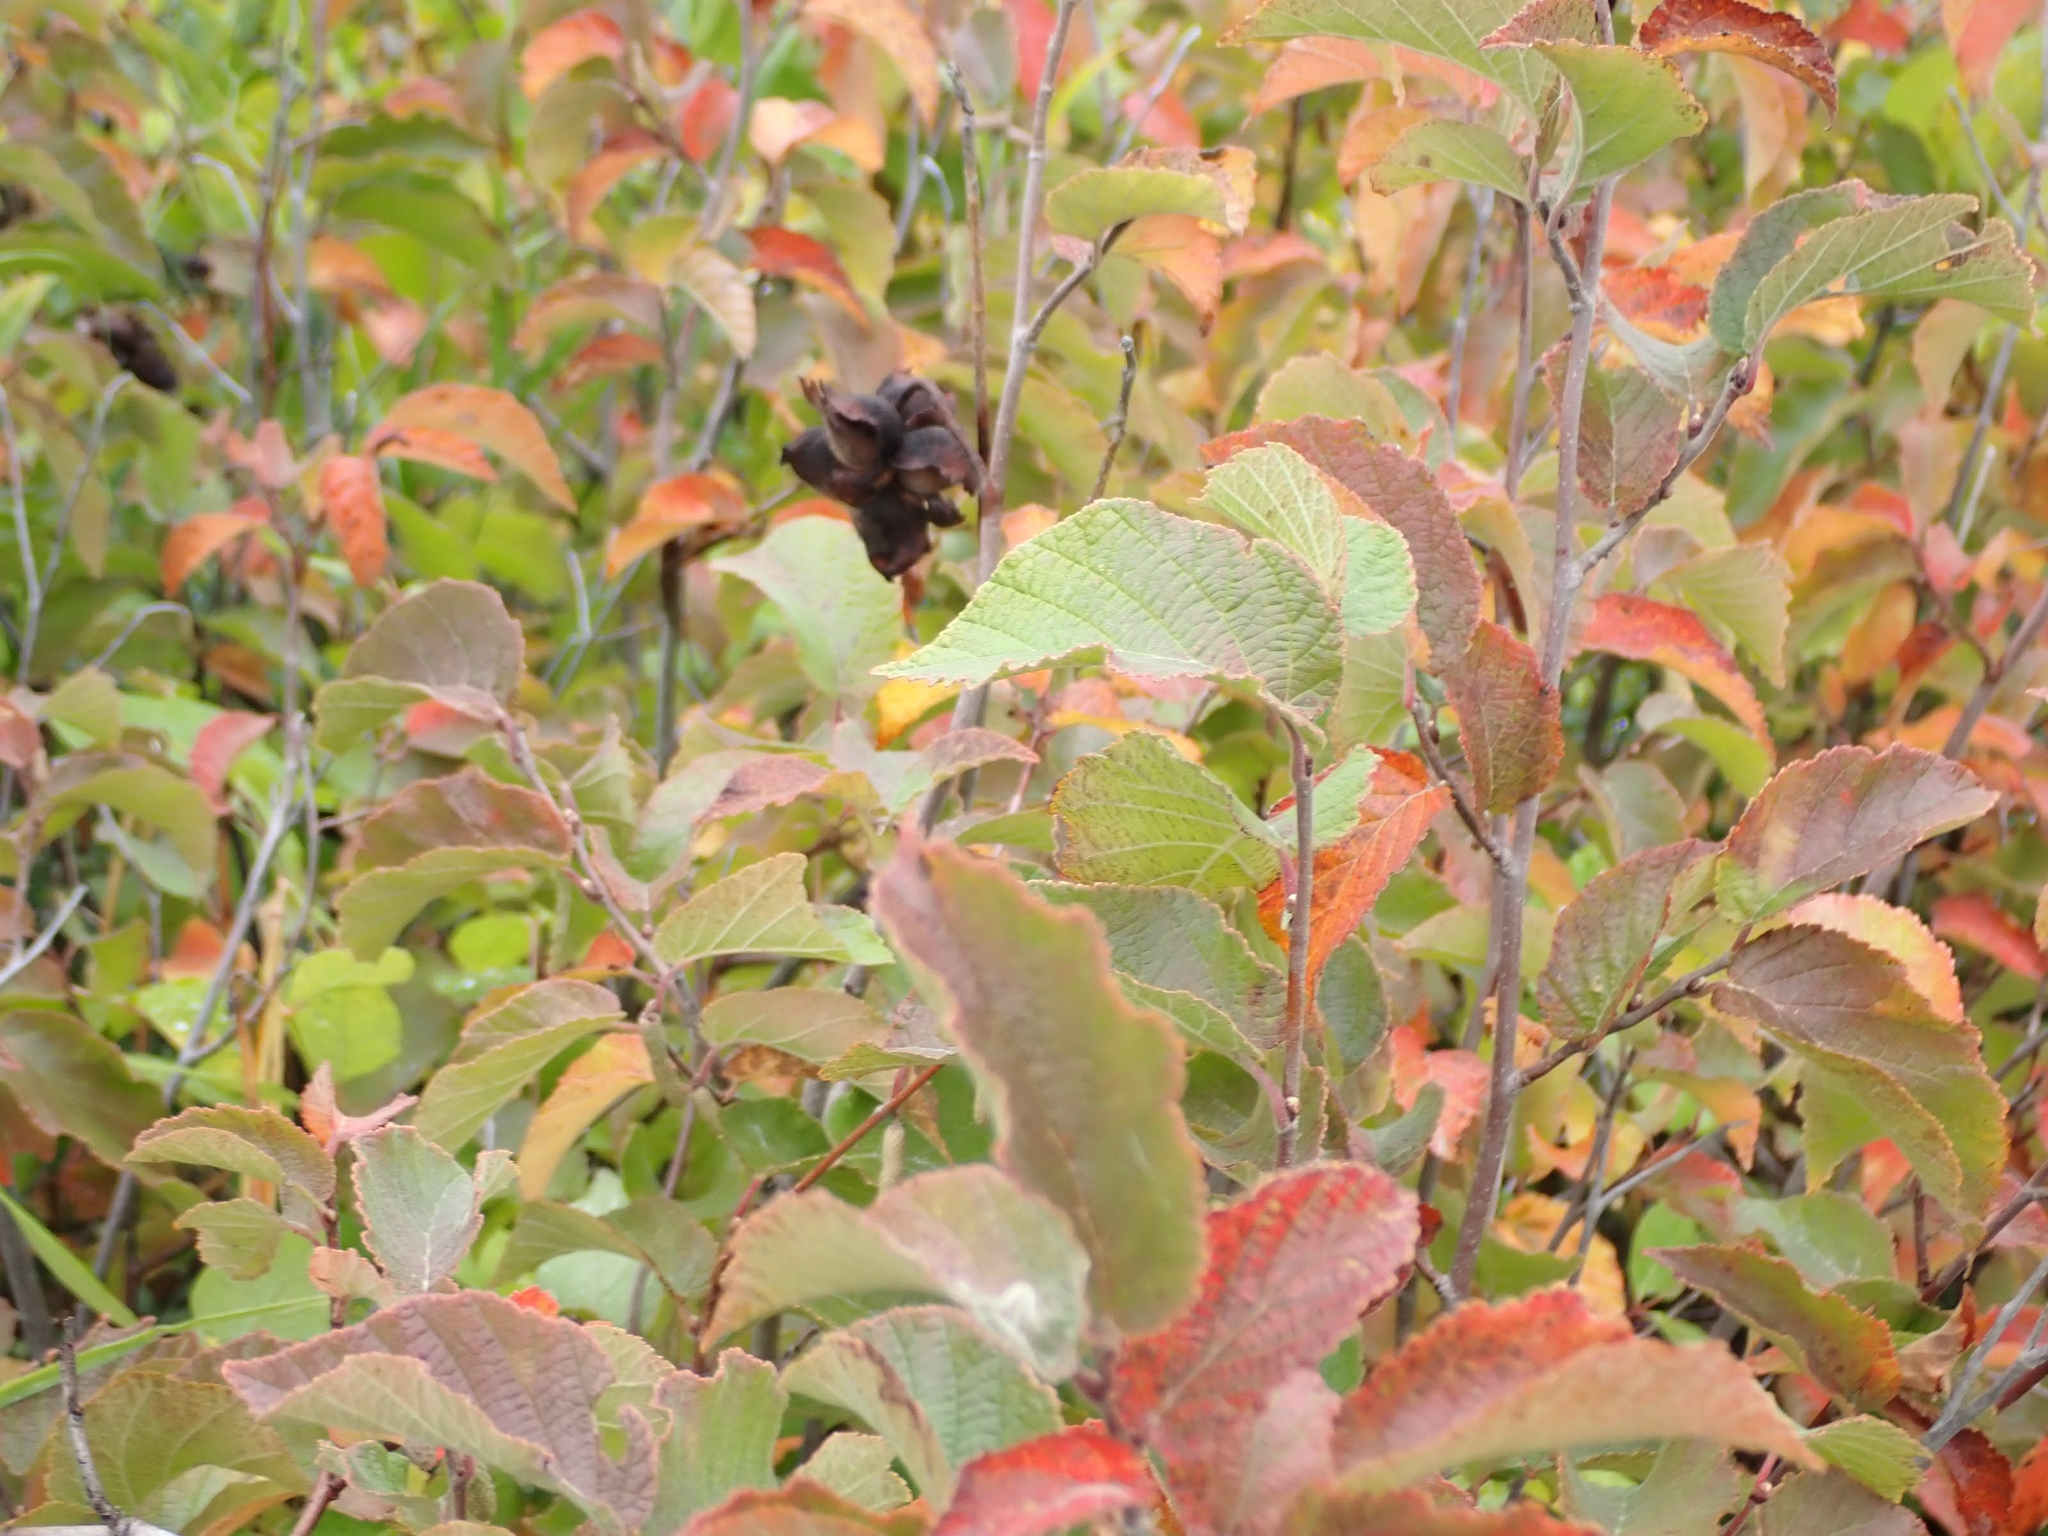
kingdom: Plantae
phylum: Tracheophyta
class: Magnoliopsida
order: Fagales
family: Betulaceae
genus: Corylus
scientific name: Corylus americana
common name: American hazel
